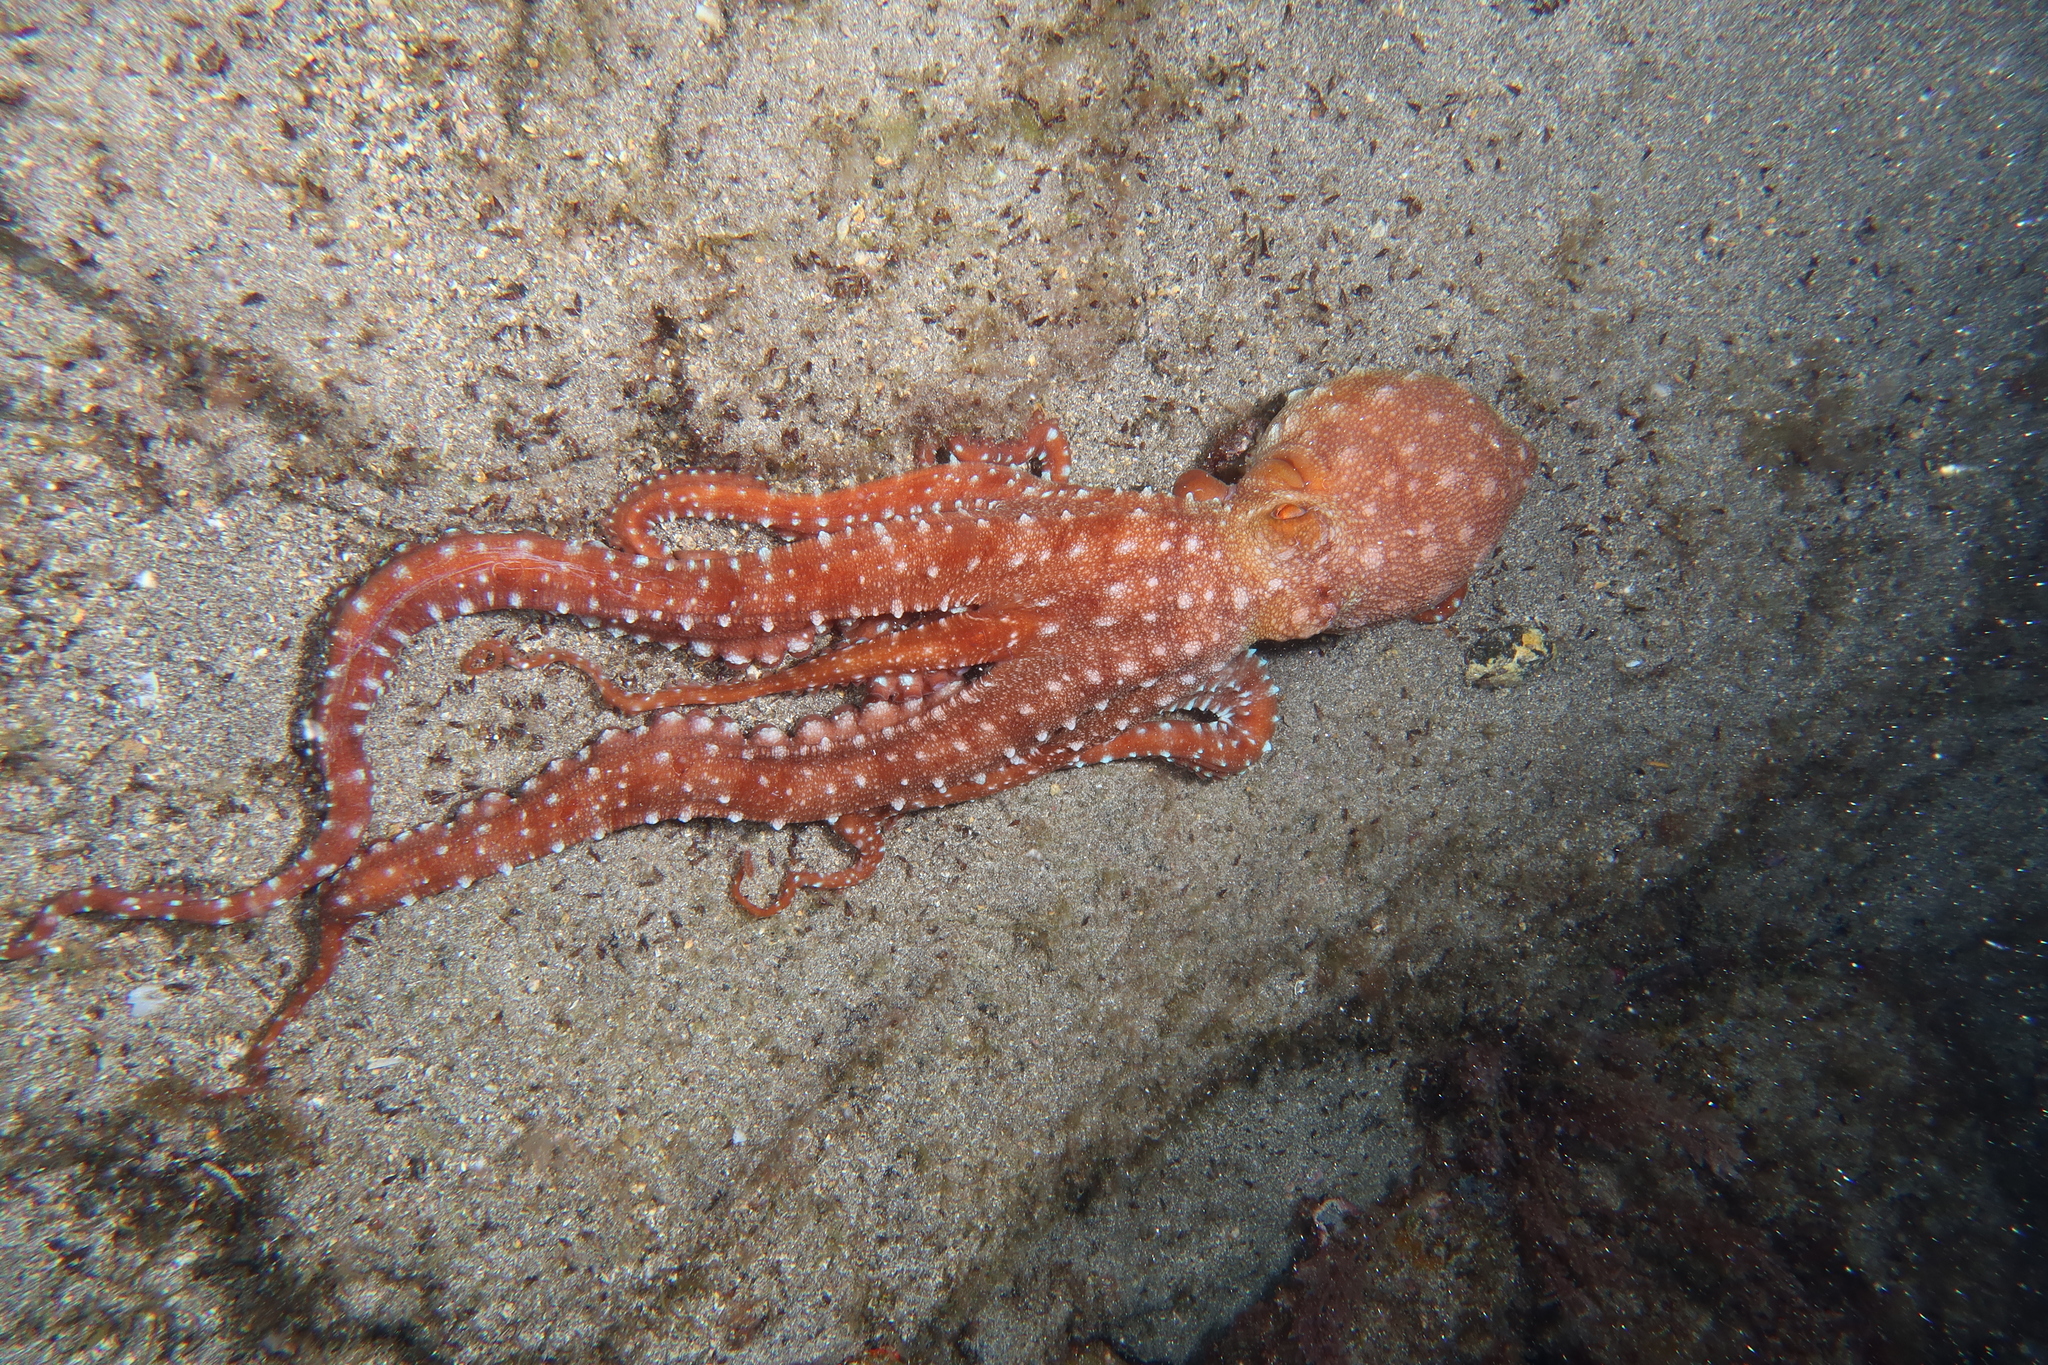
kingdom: Animalia
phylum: Mollusca
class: Cephalopoda
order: Octopoda
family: Octopodidae
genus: Callistoctopus
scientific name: Callistoctopus macropus
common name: Atlantic white-spotted octopus
